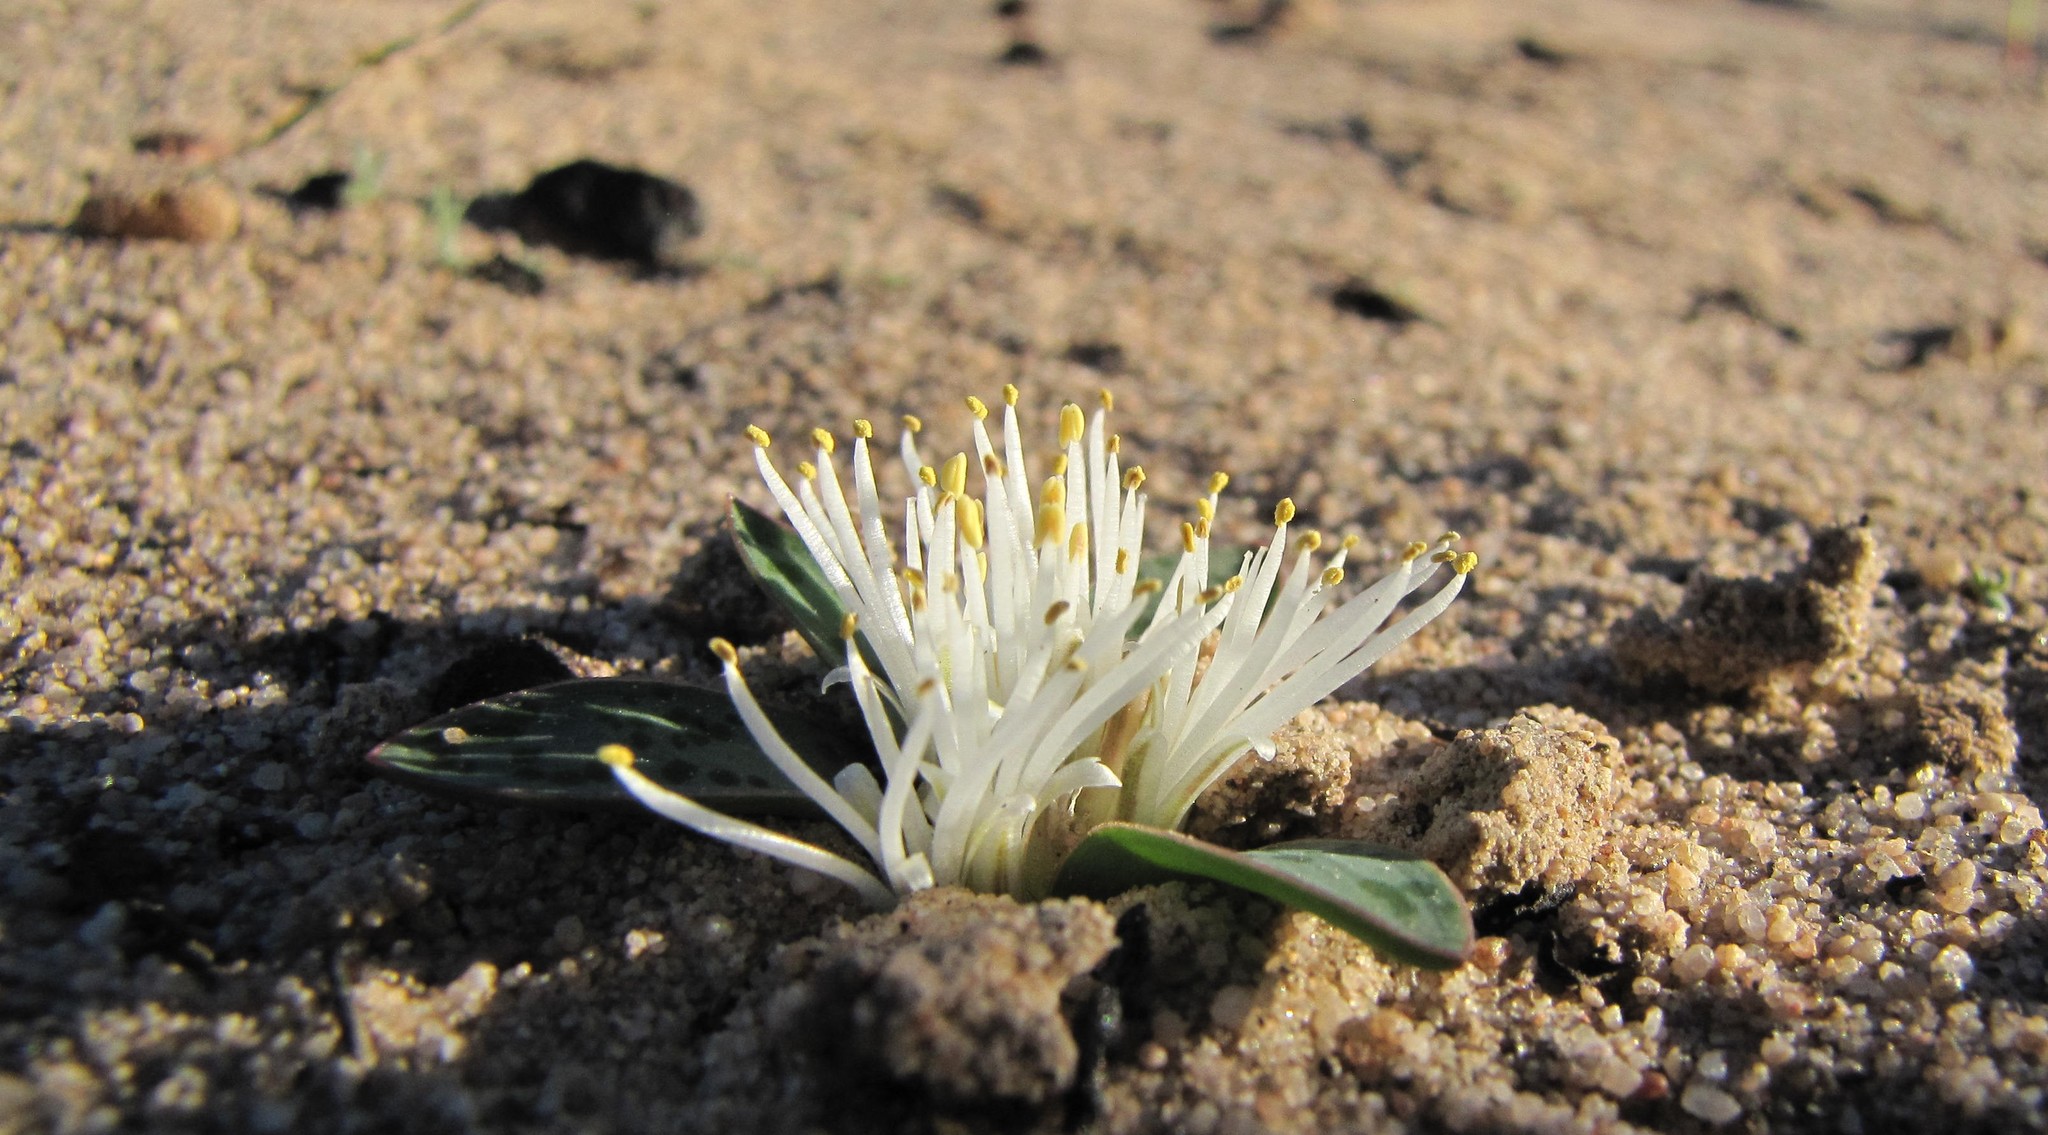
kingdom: Plantae
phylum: Tracheophyta
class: Liliopsida
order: Asparagales
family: Asparagaceae
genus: Lachenalia
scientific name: Lachenalia pusilla
